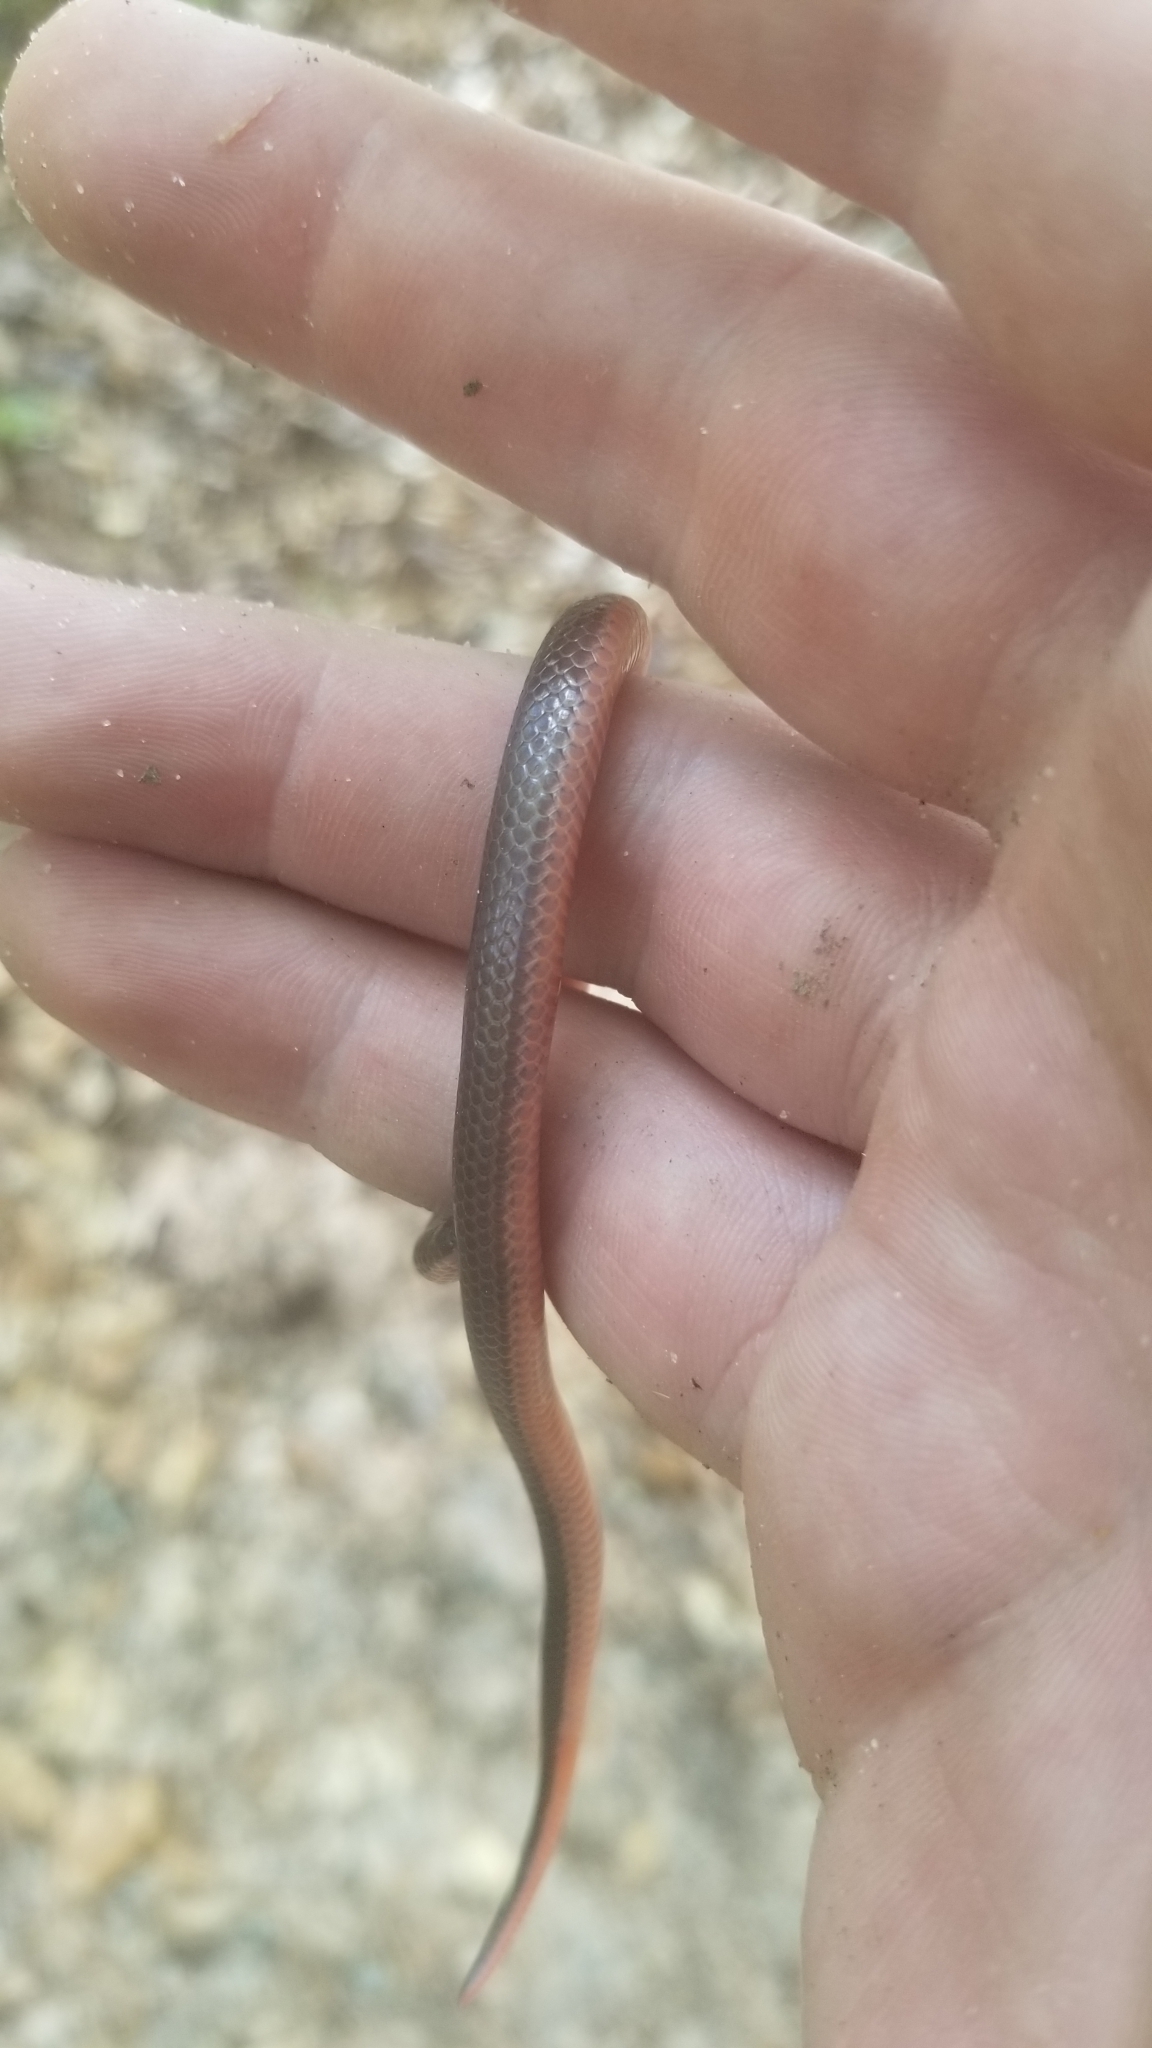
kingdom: Animalia
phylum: Chordata
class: Squamata
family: Colubridae
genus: Carphophis
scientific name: Carphophis amoenus
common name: Eastern worm snake
